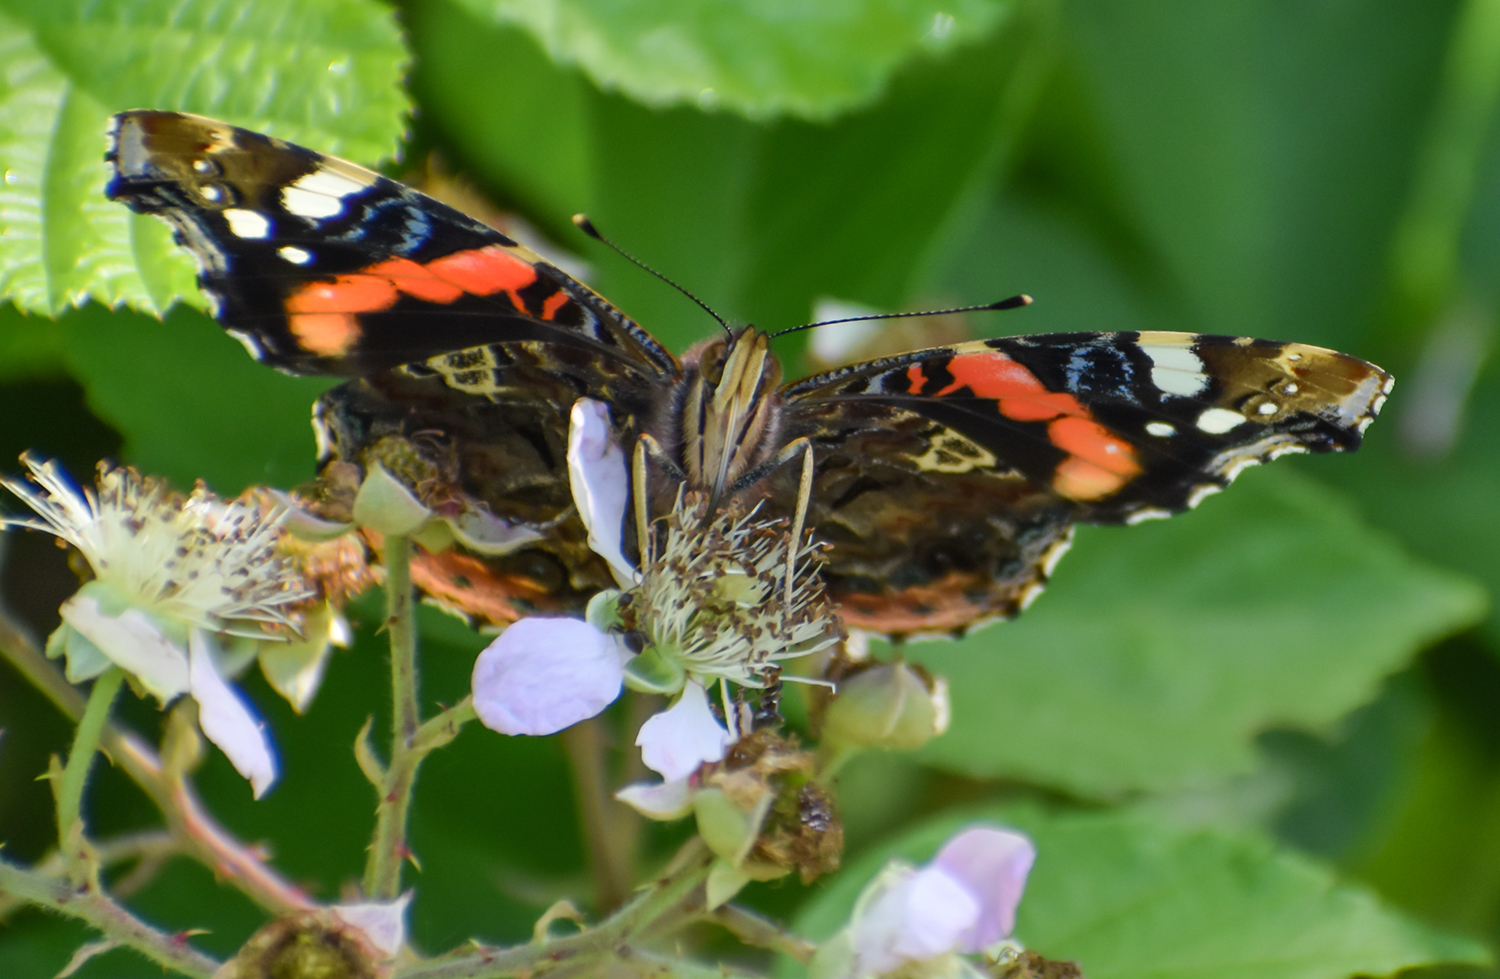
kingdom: Animalia
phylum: Arthropoda
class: Insecta
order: Lepidoptera
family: Nymphalidae
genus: Vanessa
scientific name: Vanessa atalanta
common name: Red admiral
